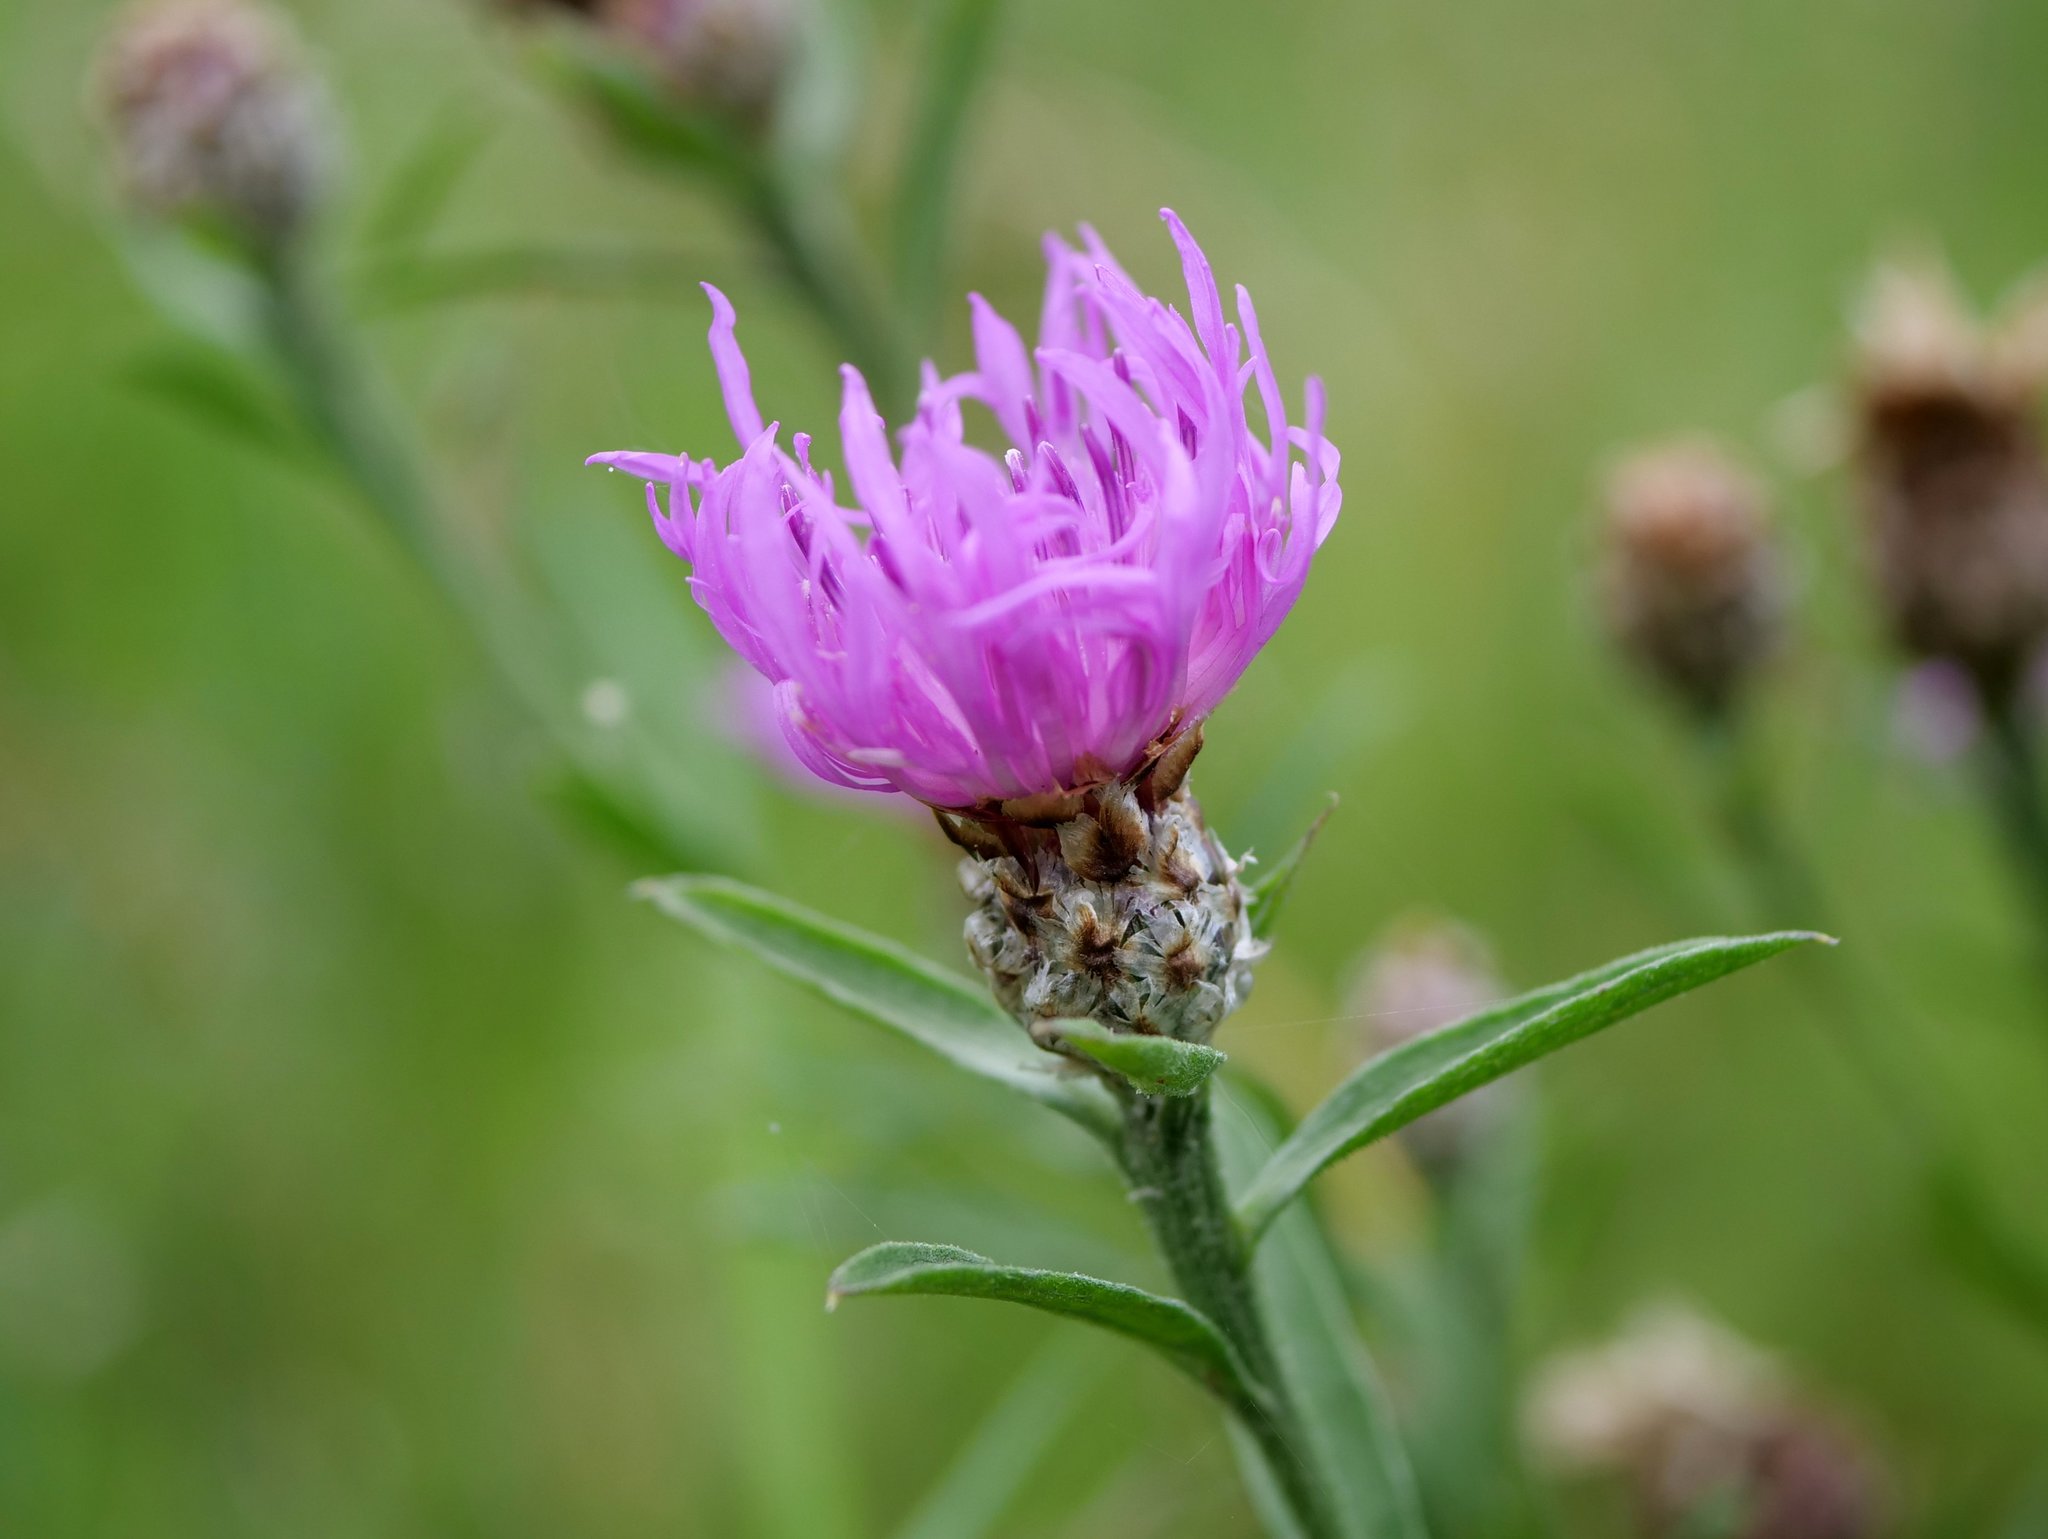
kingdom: Plantae
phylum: Tracheophyta
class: Magnoliopsida
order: Asterales
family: Asteraceae
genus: Centaurea
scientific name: Centaurea jacea
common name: Brown knapweed
